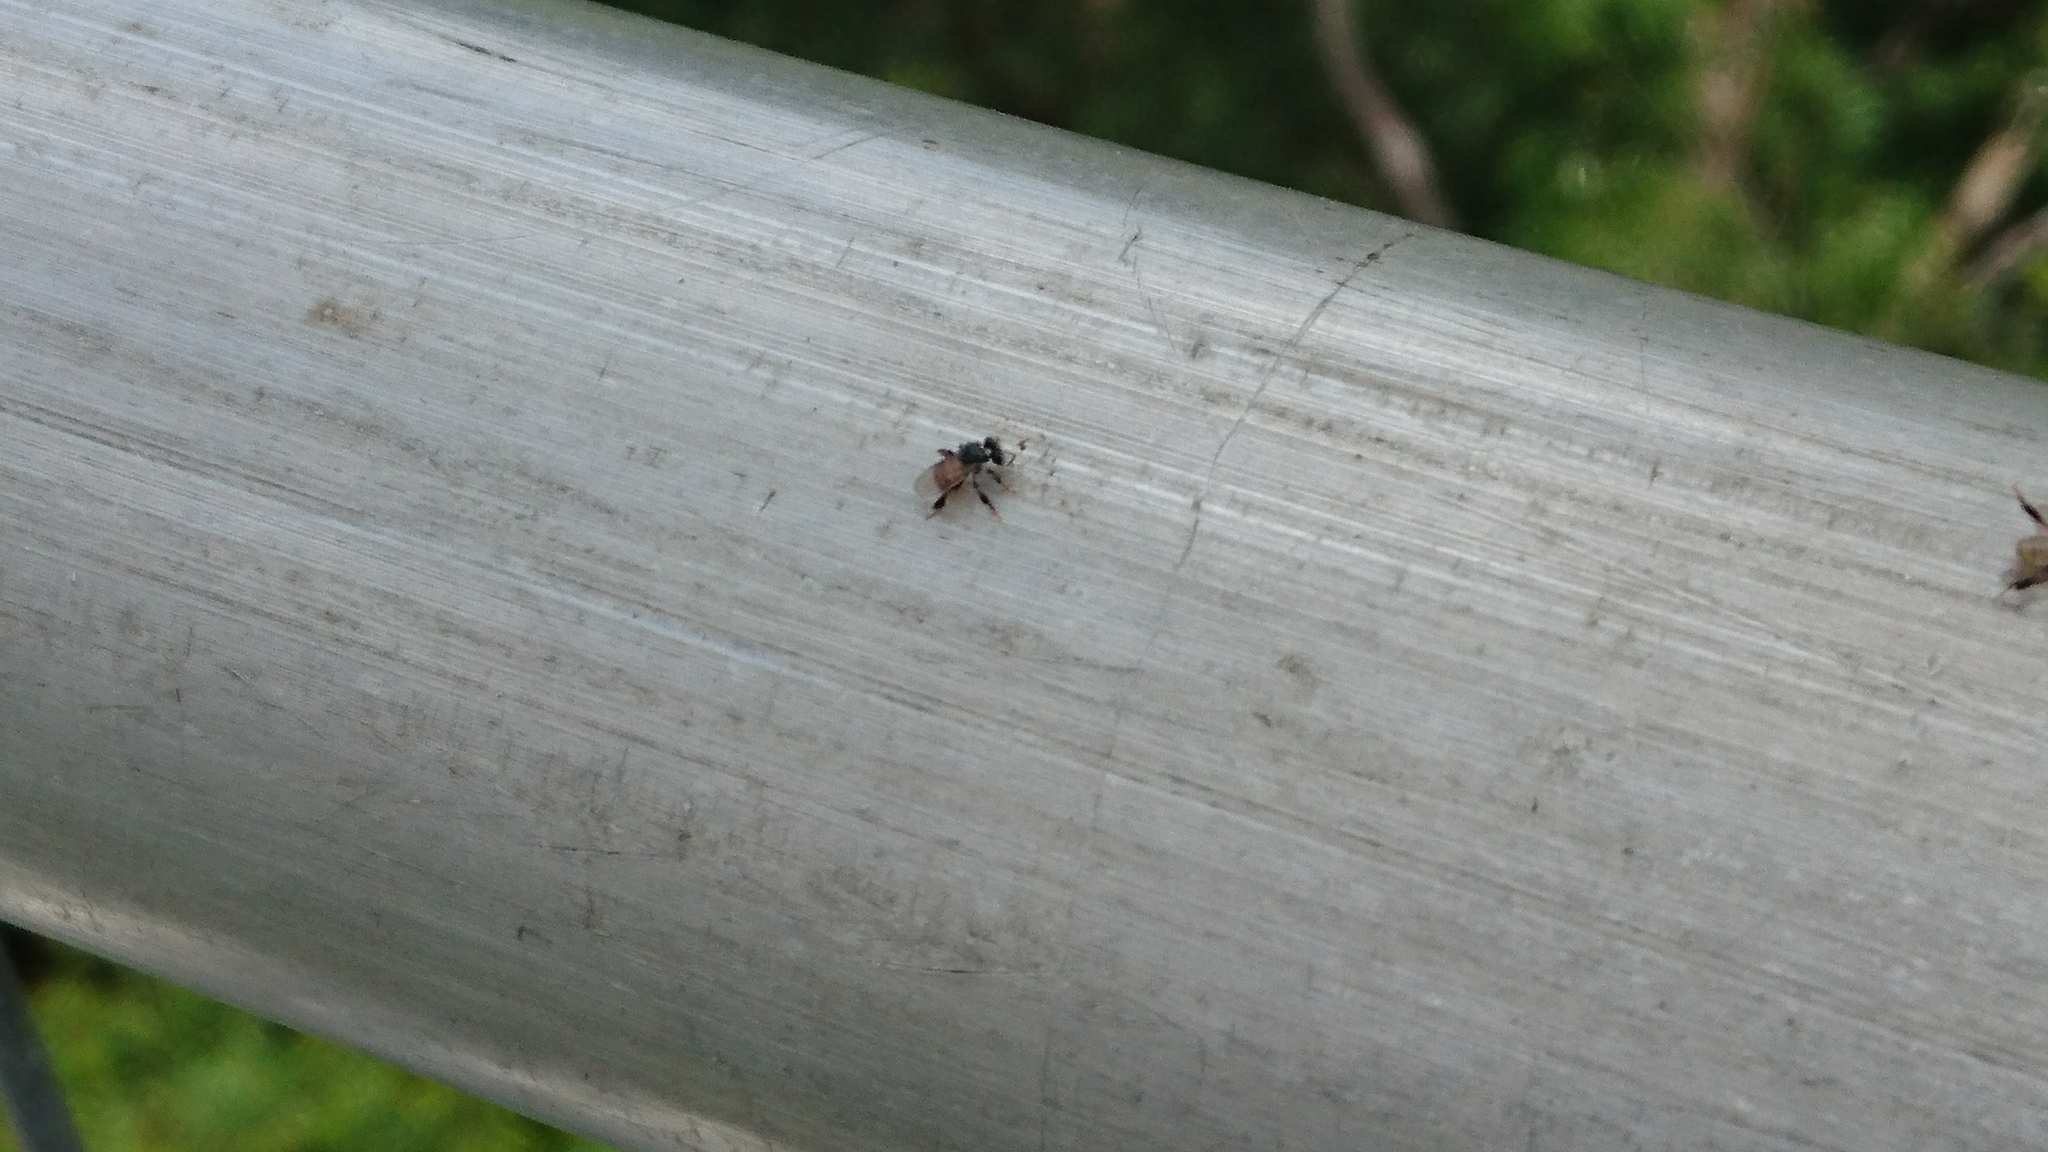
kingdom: Animalia
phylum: Arthropoda
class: Insecta
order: Hymenoptera
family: Apidae
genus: Tetragonula
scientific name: Tetragonula
